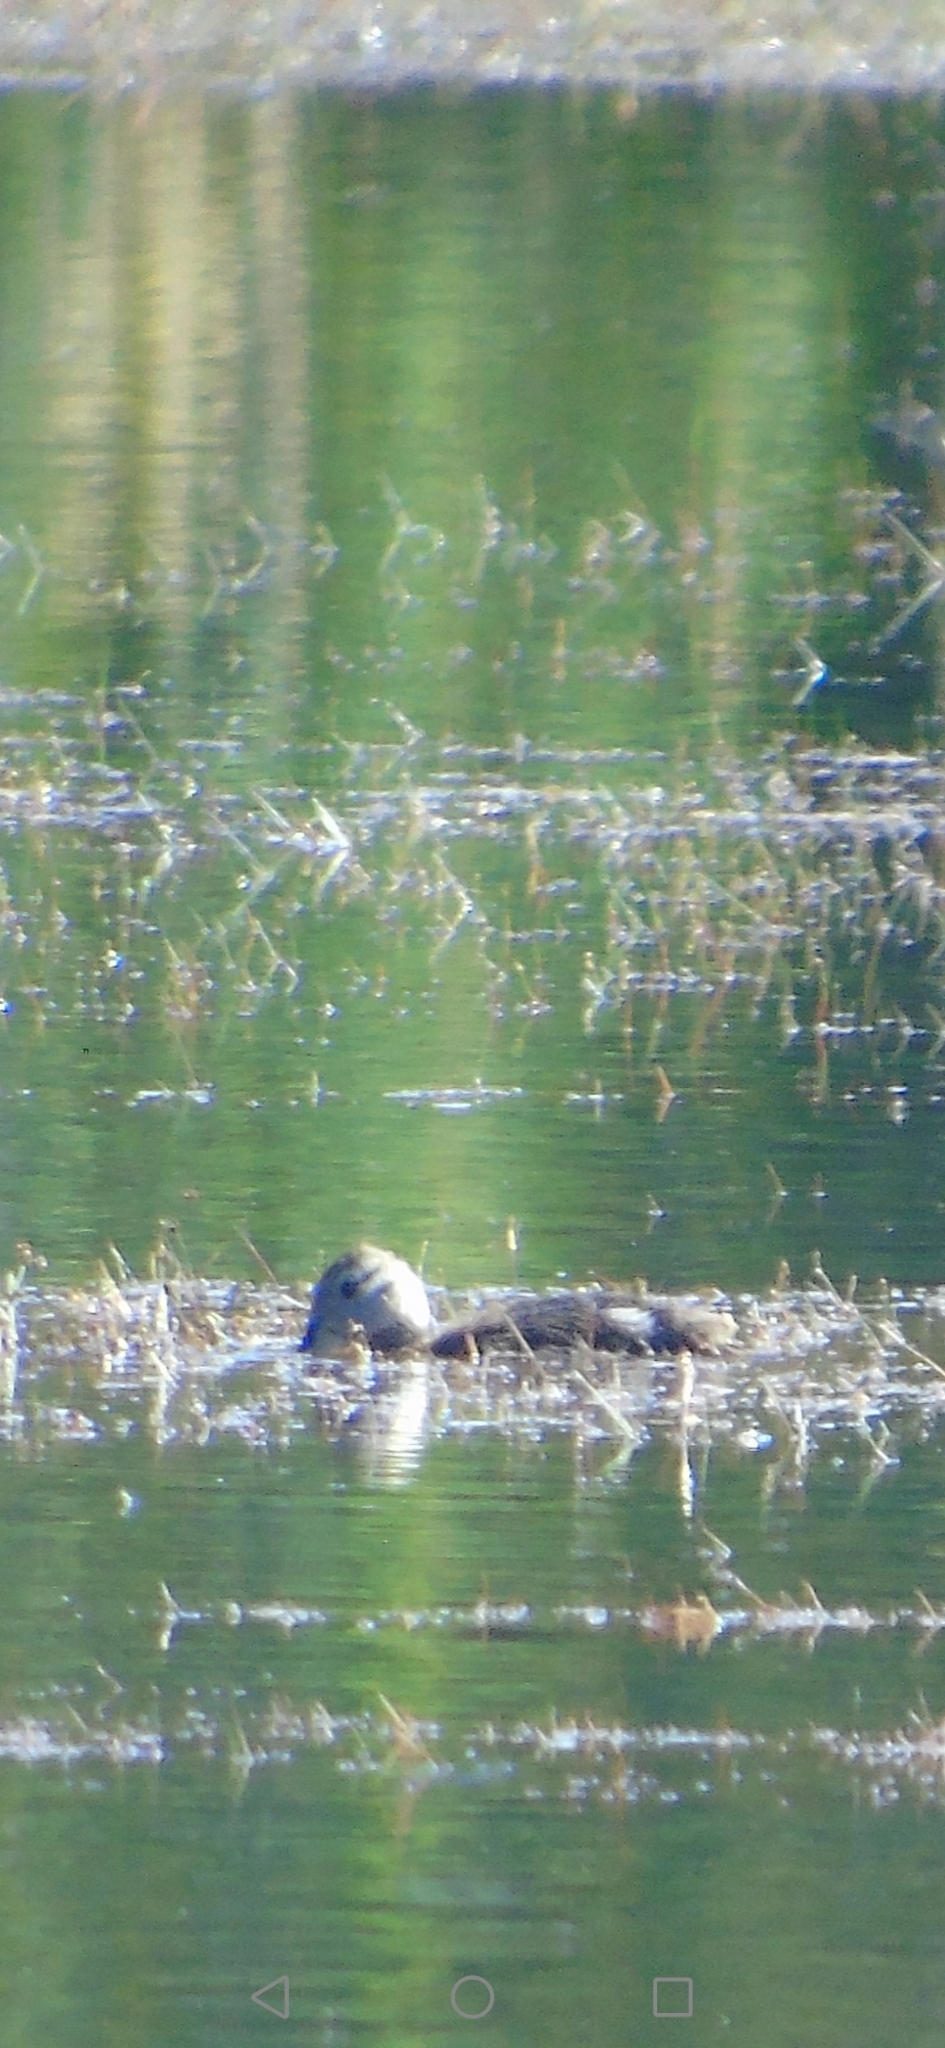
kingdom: Animalia
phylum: Chordata
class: Aves
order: Anseriformes
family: Anatidae
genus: Anas
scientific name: Anas georgica
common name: Yellow-billed pintail
